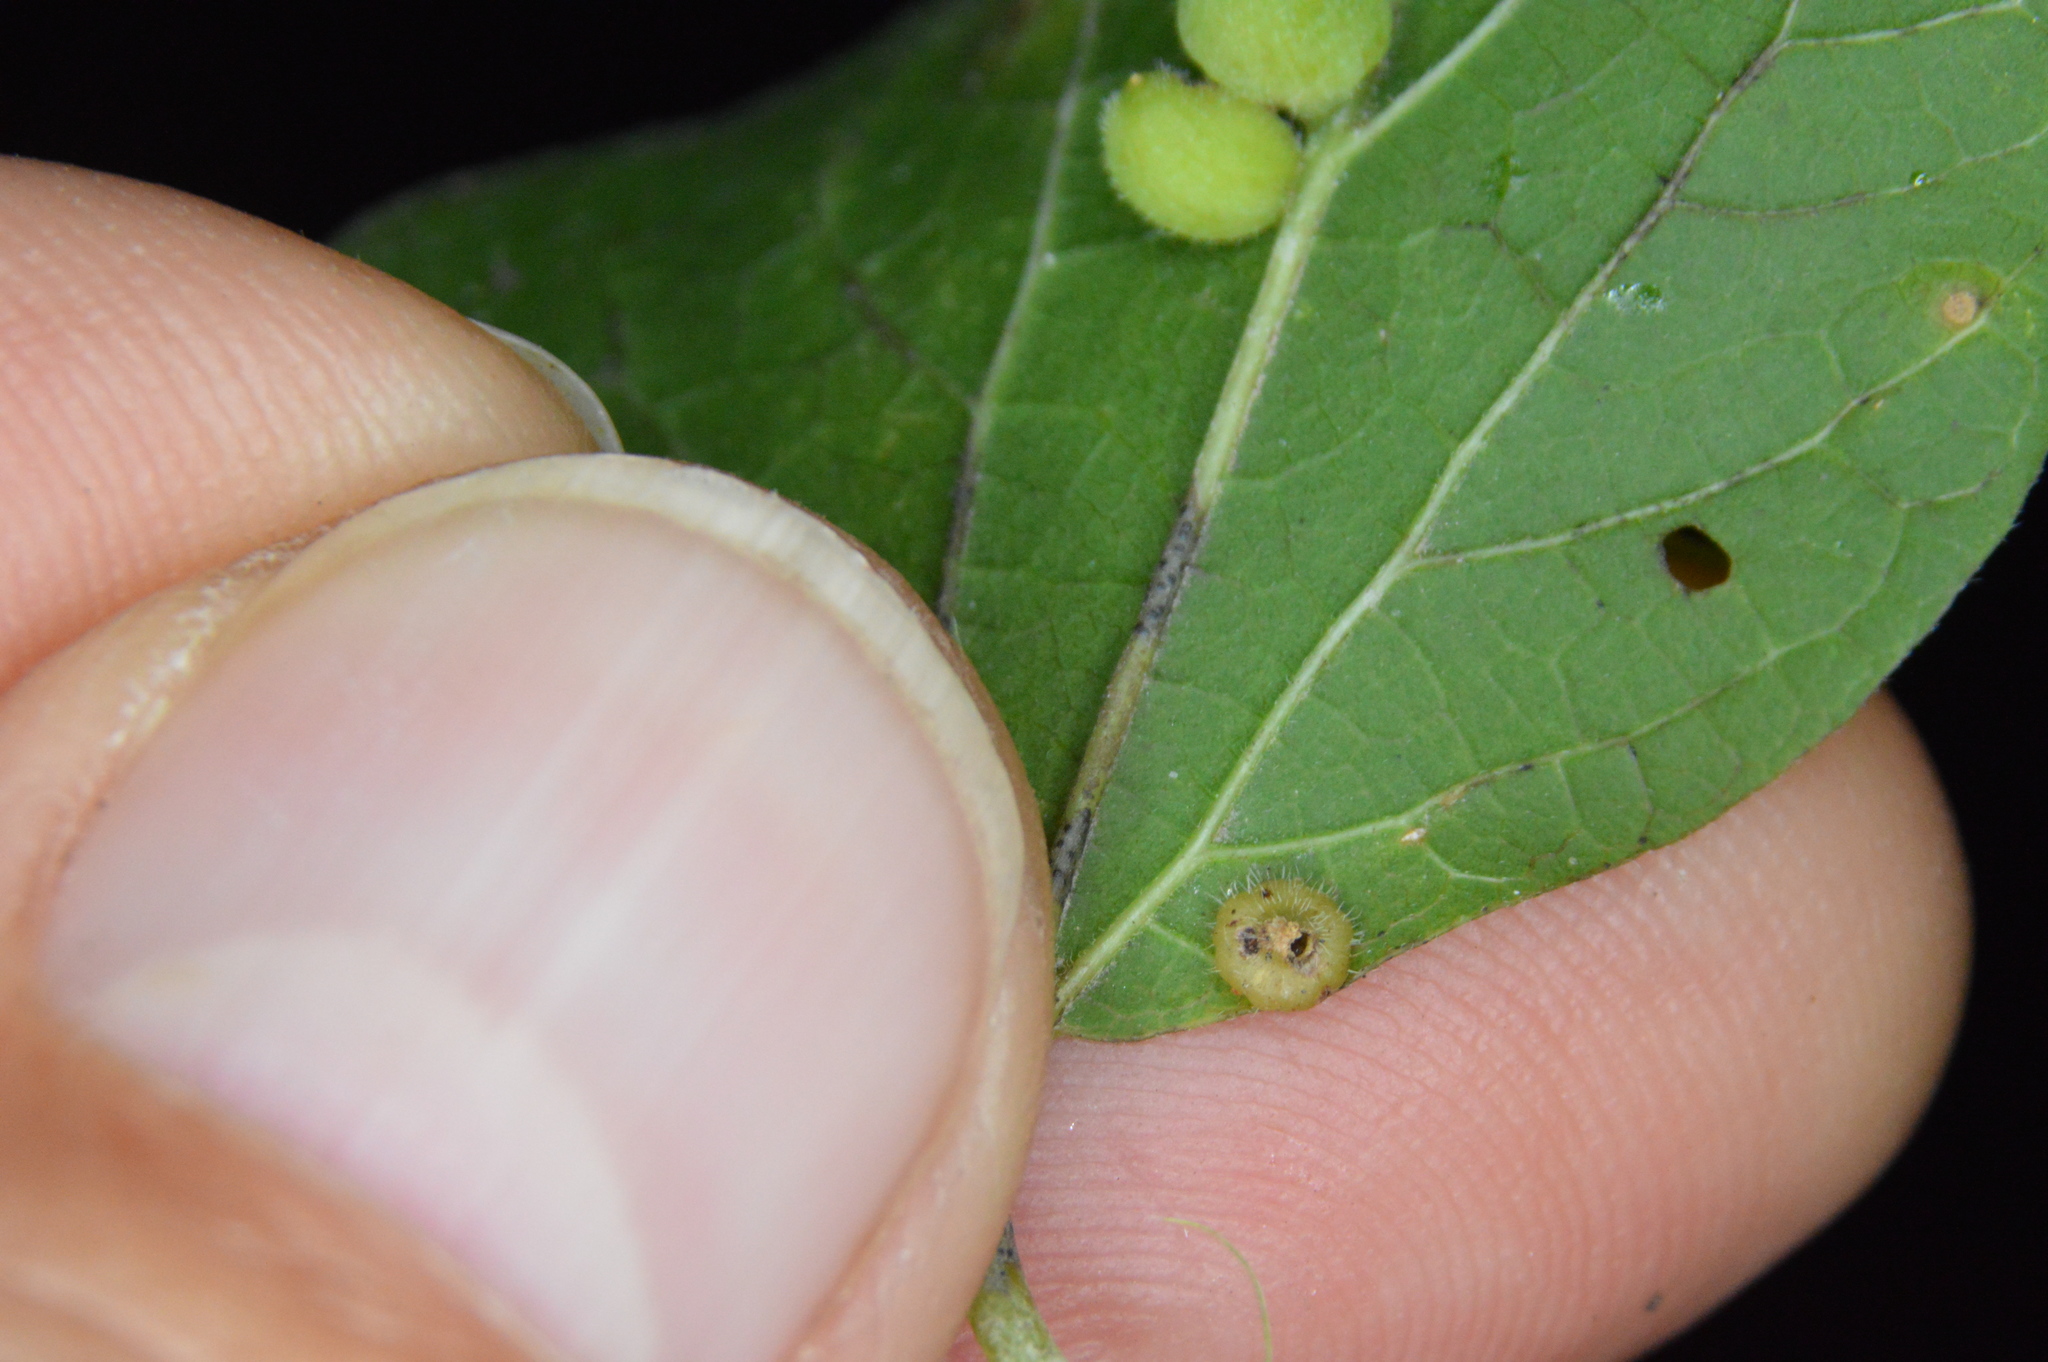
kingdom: Animalia
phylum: Arthropoda
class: Insecta
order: Diptera
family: Cecidomyiidae
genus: Celticecis
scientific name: Celticecis capsularis
